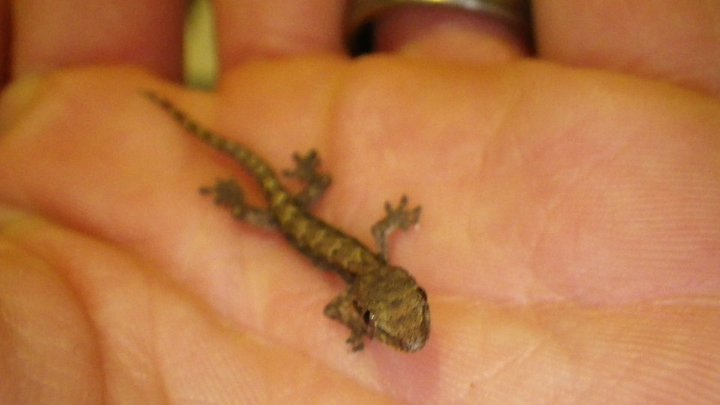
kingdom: Animalia
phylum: Chordata
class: Squamata
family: Gekkonidae
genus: Lepidodactylus
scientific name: Lepidodactylus lugubris
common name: Mourning gecko
